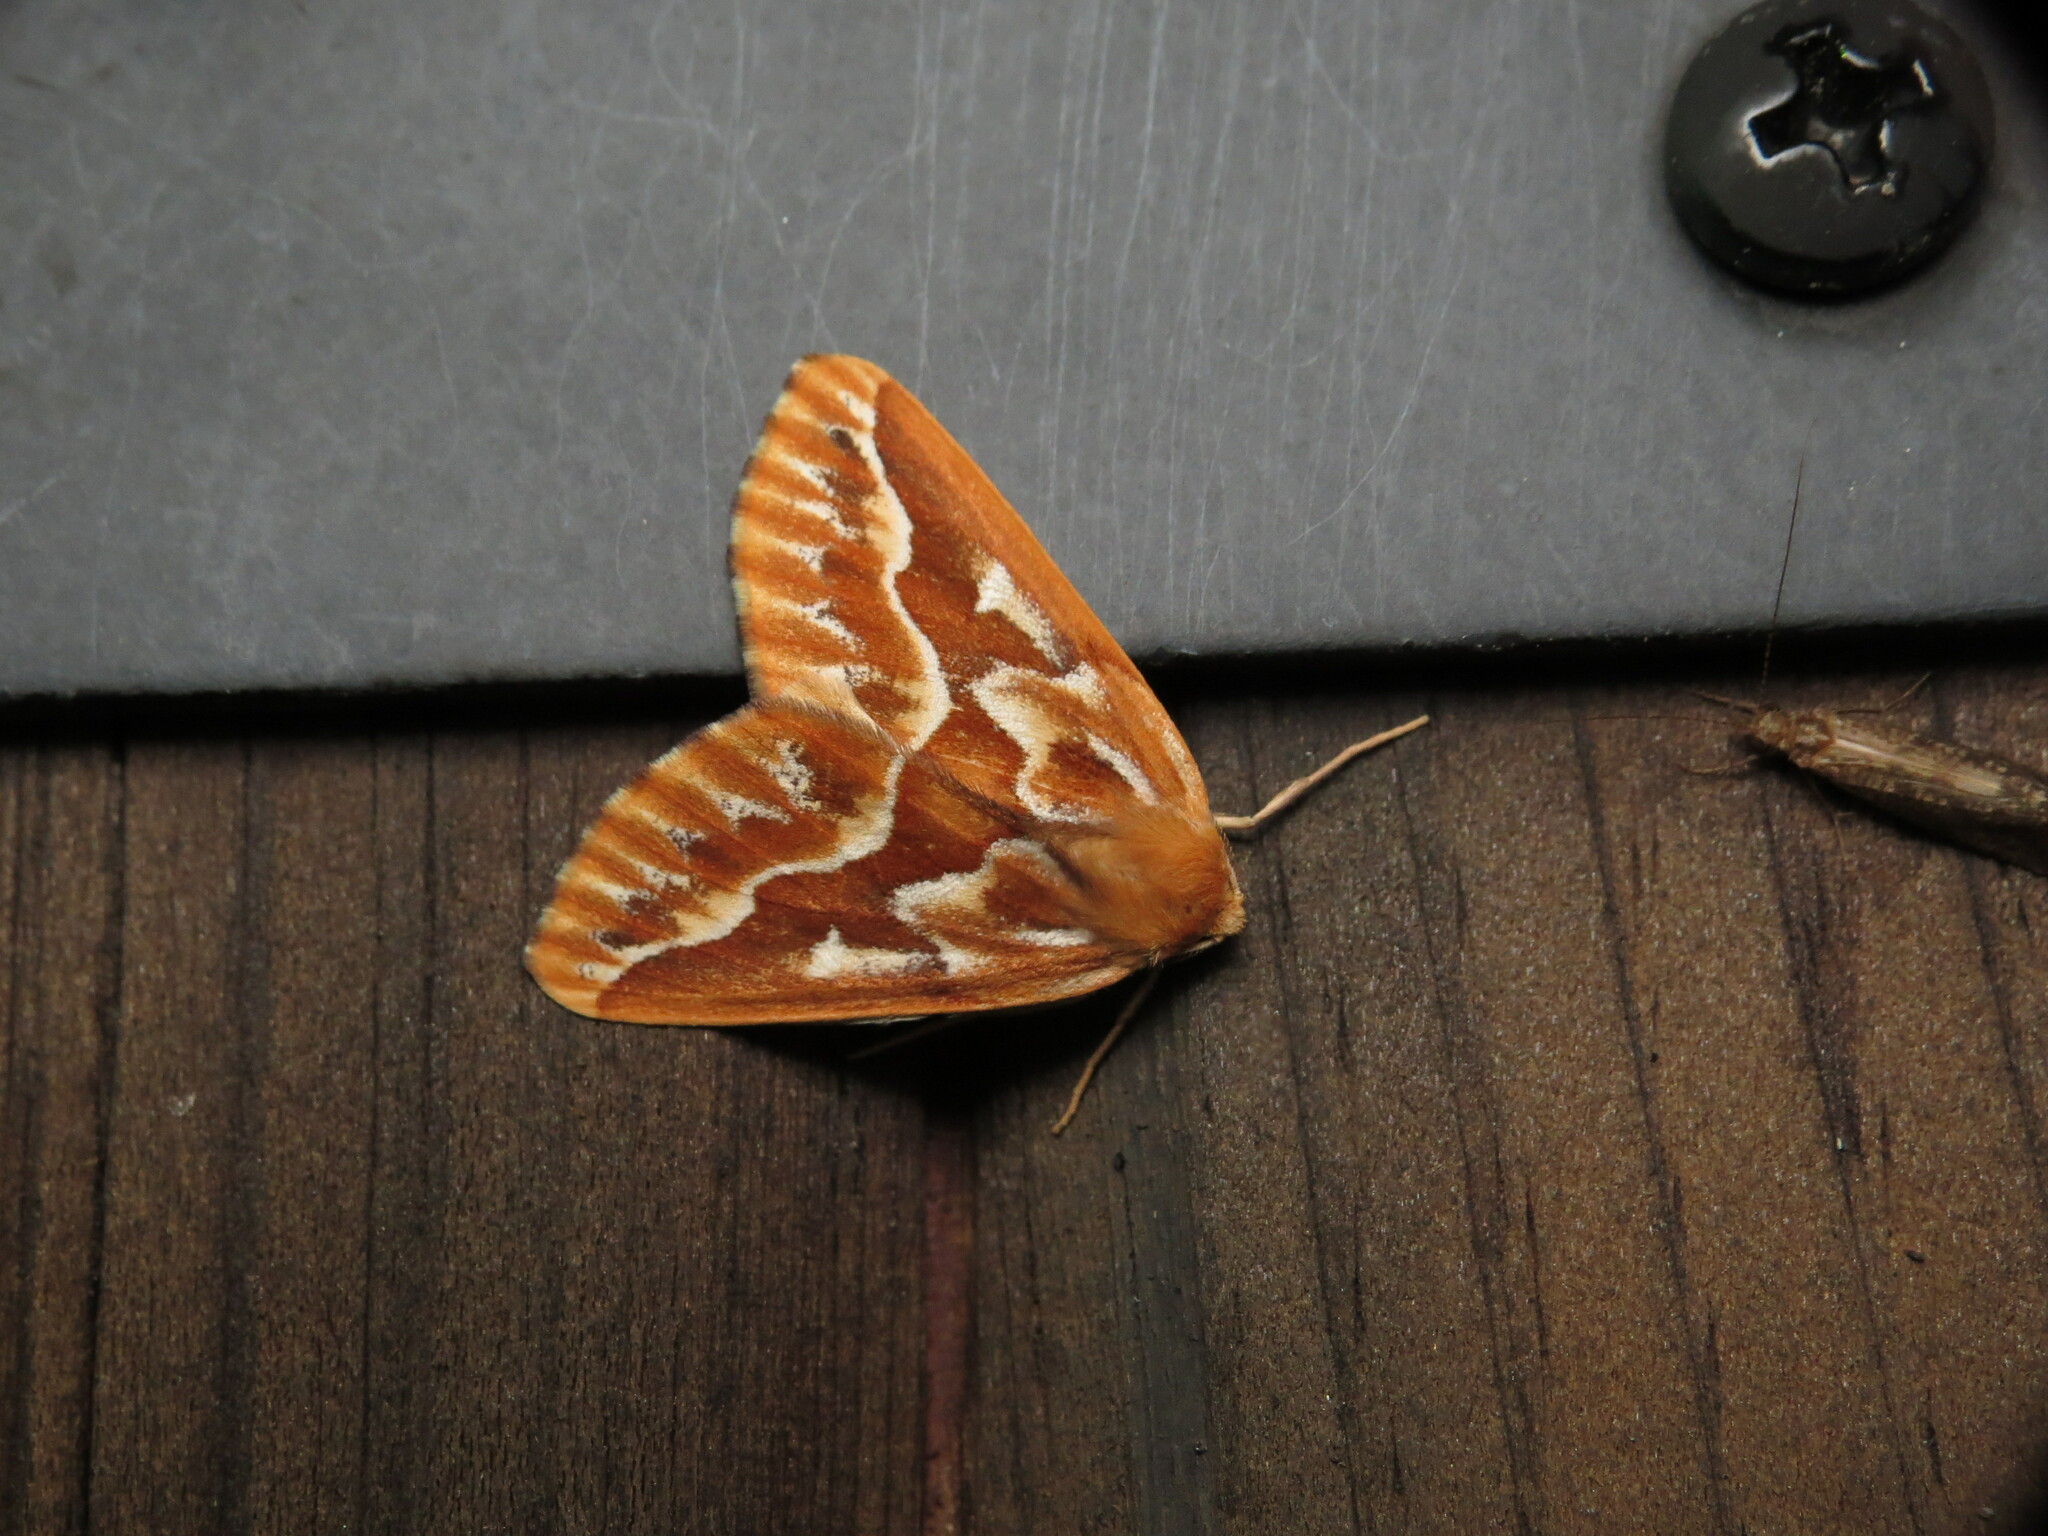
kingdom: Animalia
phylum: Arthropoda
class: Insecta
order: Lepidoptera
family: Geometridae
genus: Caripeta
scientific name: Caripeta piniata
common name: Northern pine looper moth
